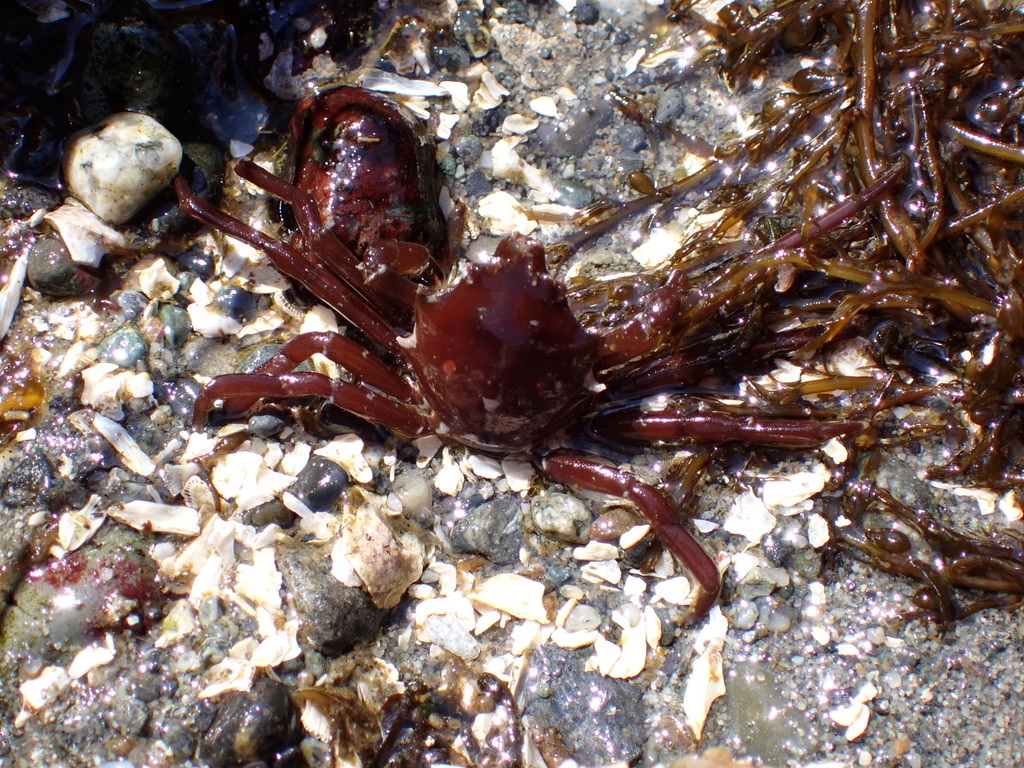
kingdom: Animalia
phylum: Arthropoda
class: Malacostraca
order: Decapoda
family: Epialtidae
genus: Pugettia
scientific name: Pugettia producta
